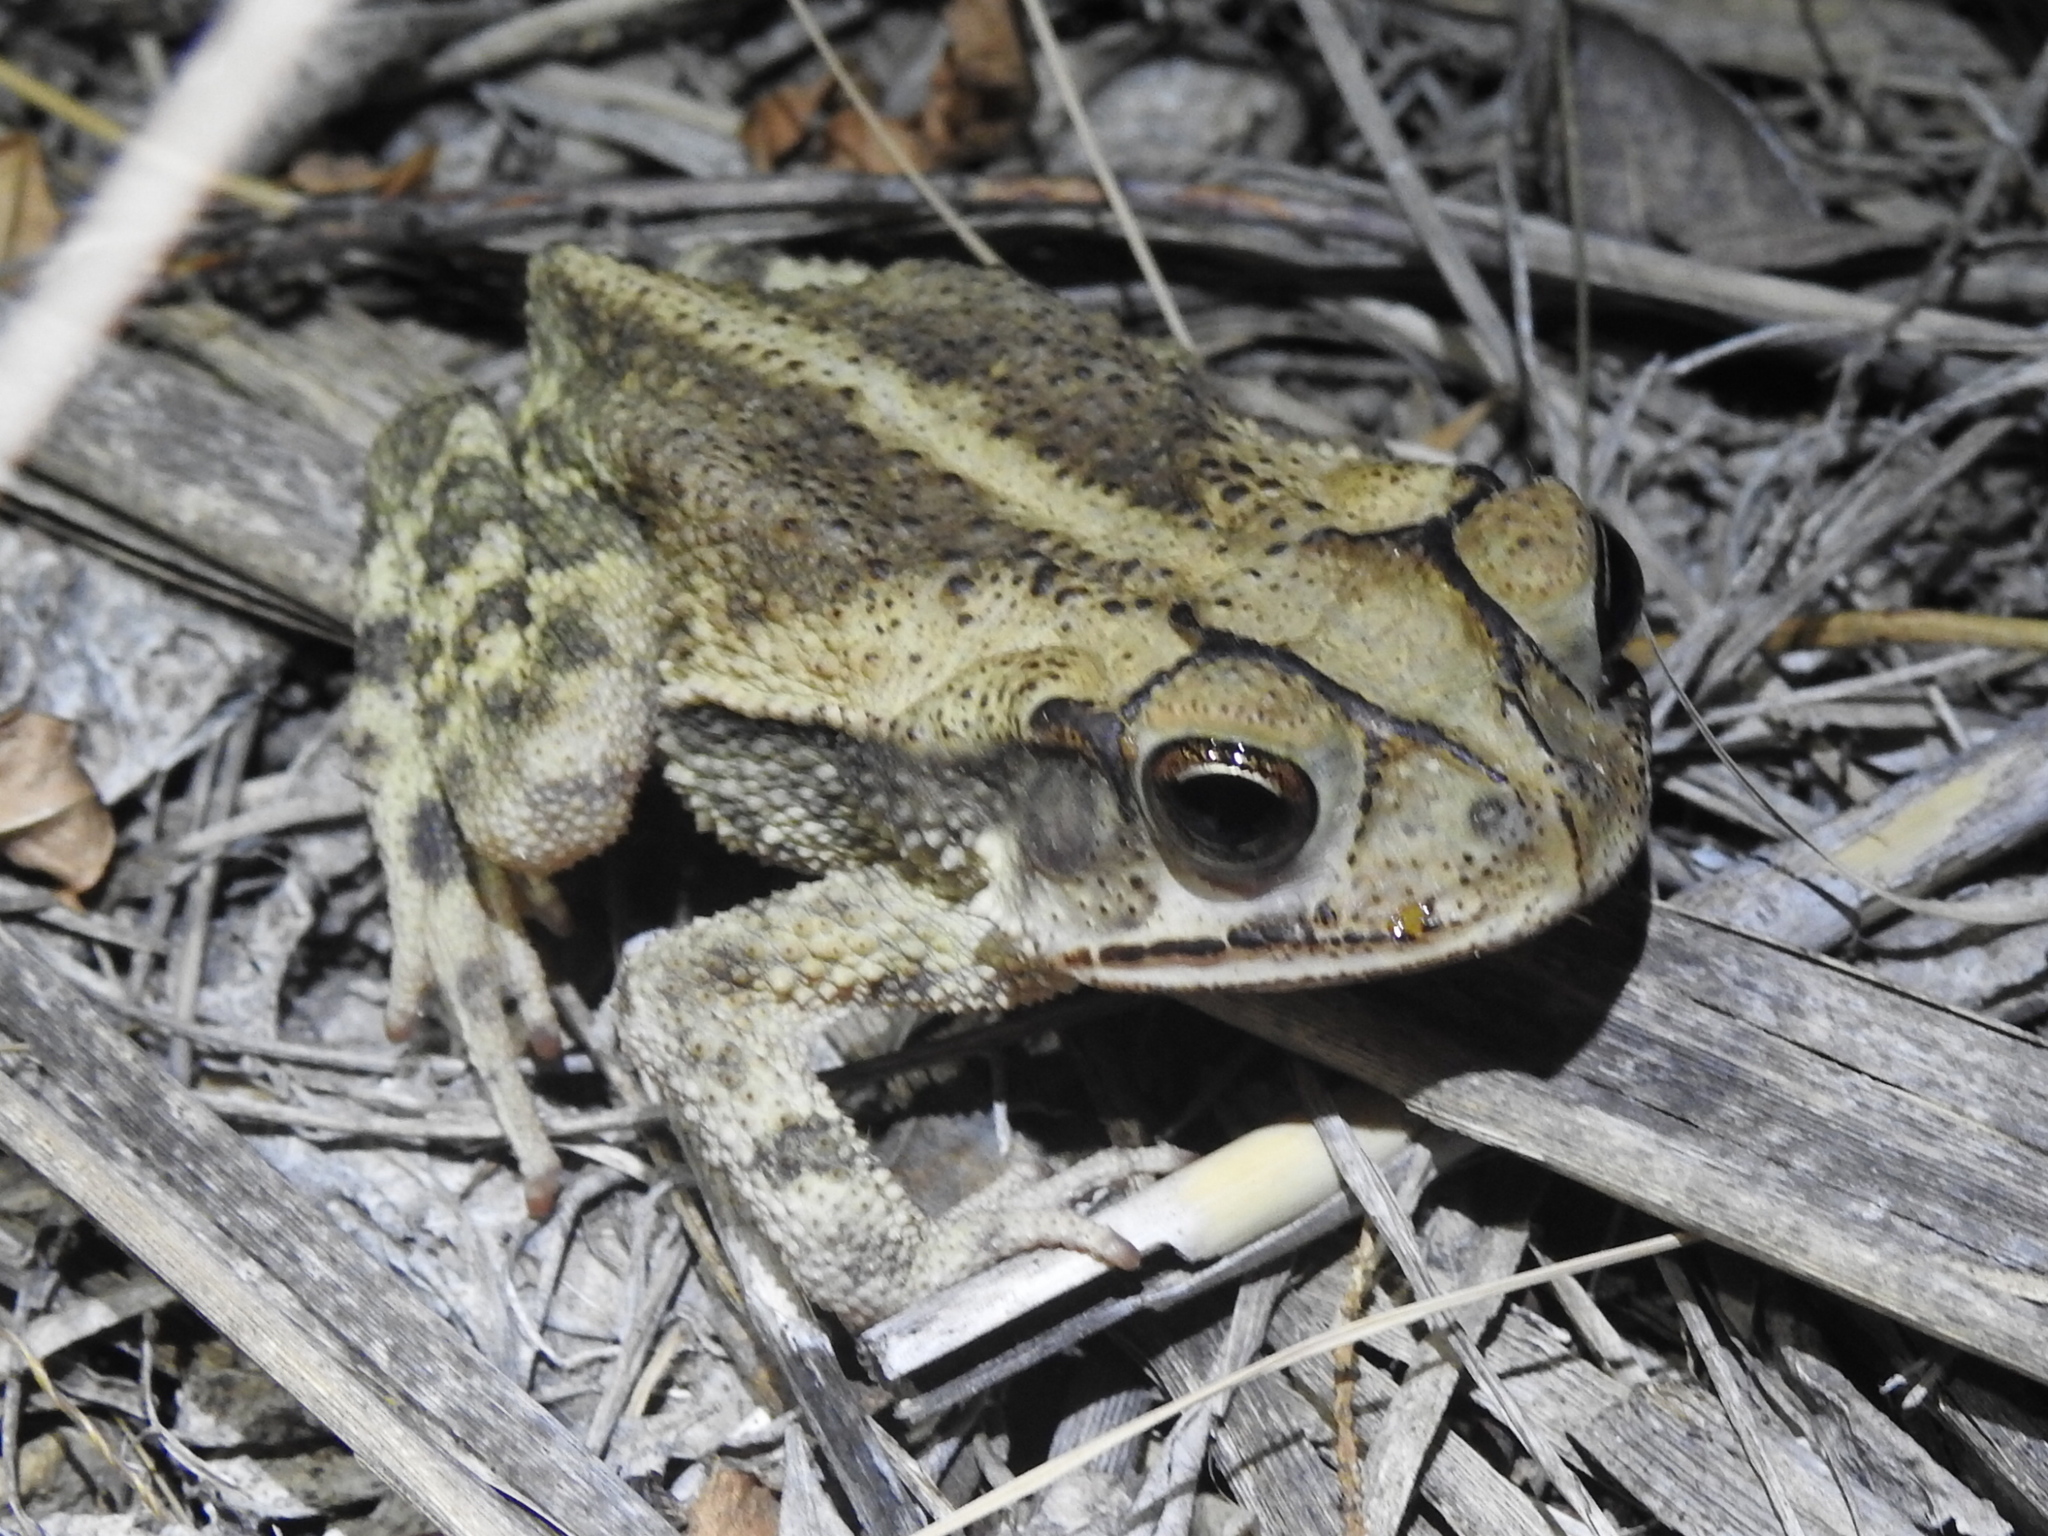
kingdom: Animalia
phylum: Chordata
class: Amphibia
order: Anura
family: Bufonidae
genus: Incilius
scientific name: Incilius nebulifer
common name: Gulf coast toad
